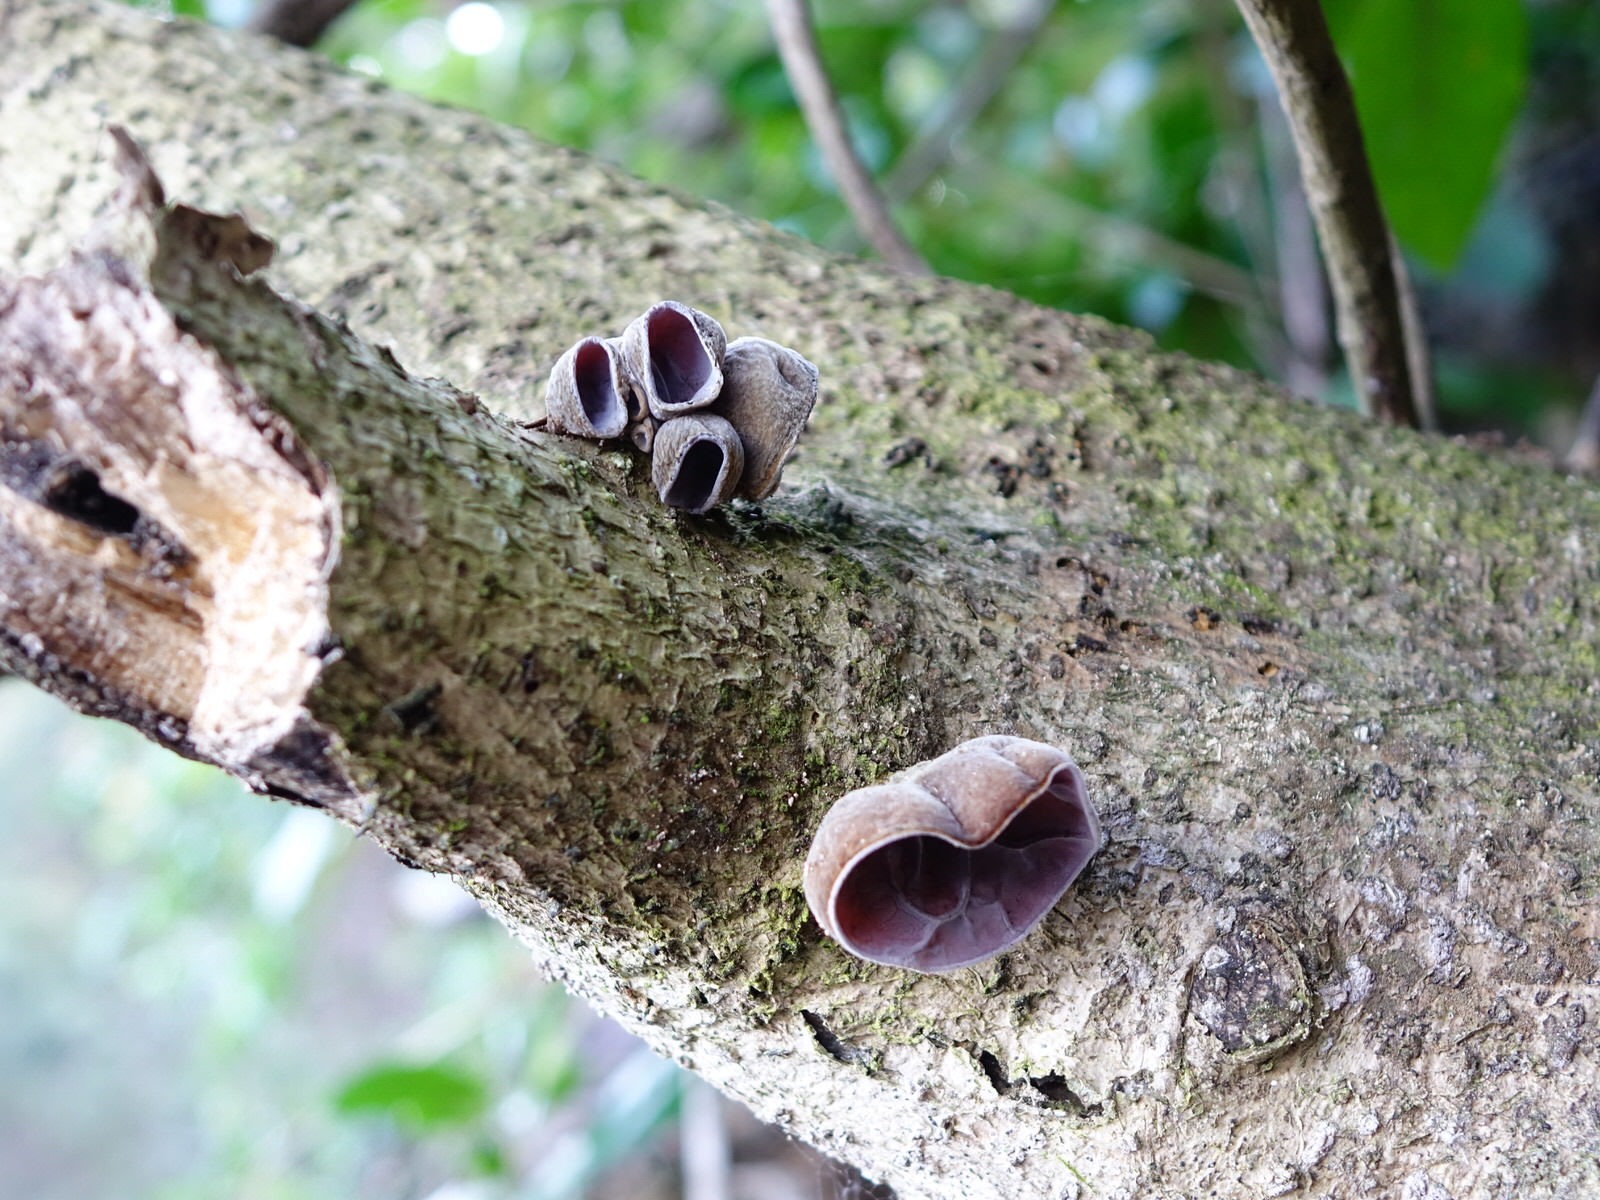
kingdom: Fungi
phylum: Basidiomycota
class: Agaricomycetes
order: Auriculariales
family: Auriculariaceae
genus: Auricularia
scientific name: Auricularia cornea
